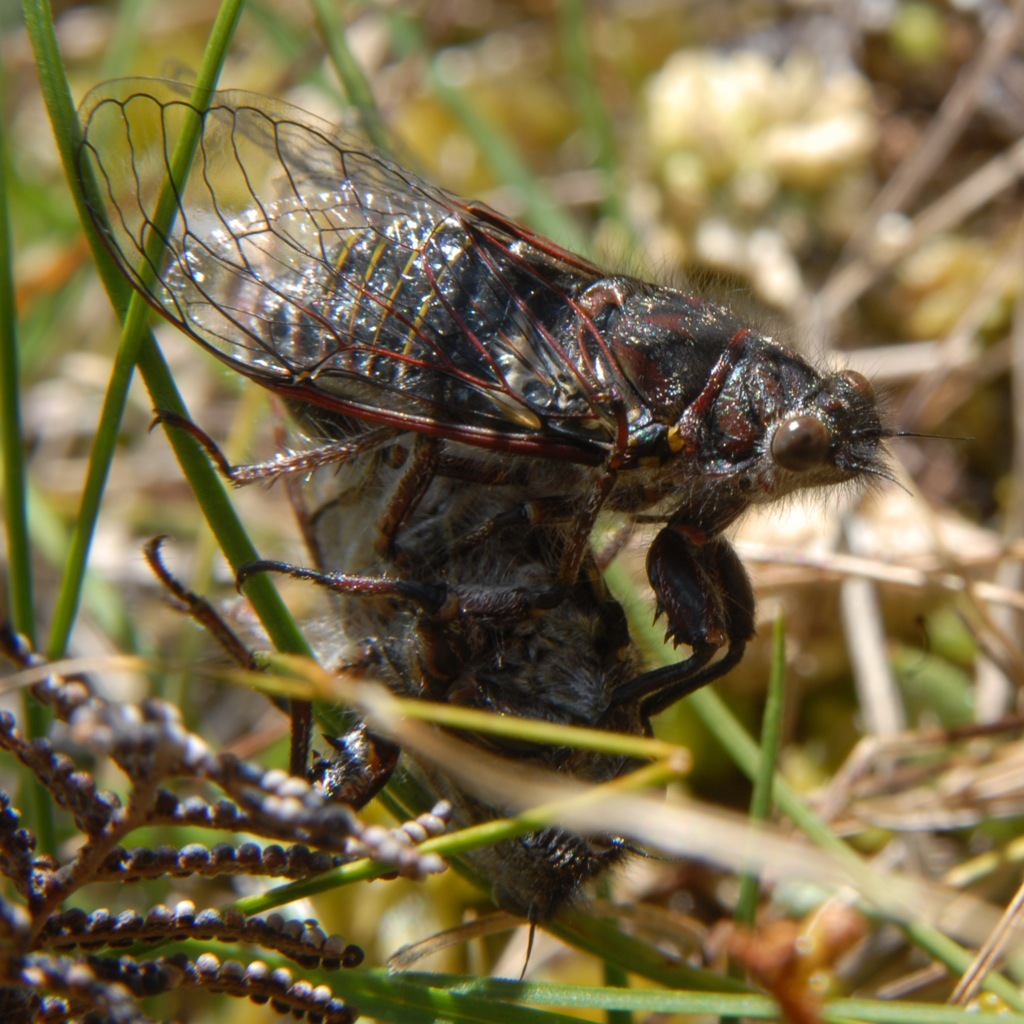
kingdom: Animalia
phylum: Arthropoda
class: Insecta
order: Hemiptera
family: Cicadidae
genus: Maoricicada
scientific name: Maoricicada campbelli
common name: Campbell's cicada
